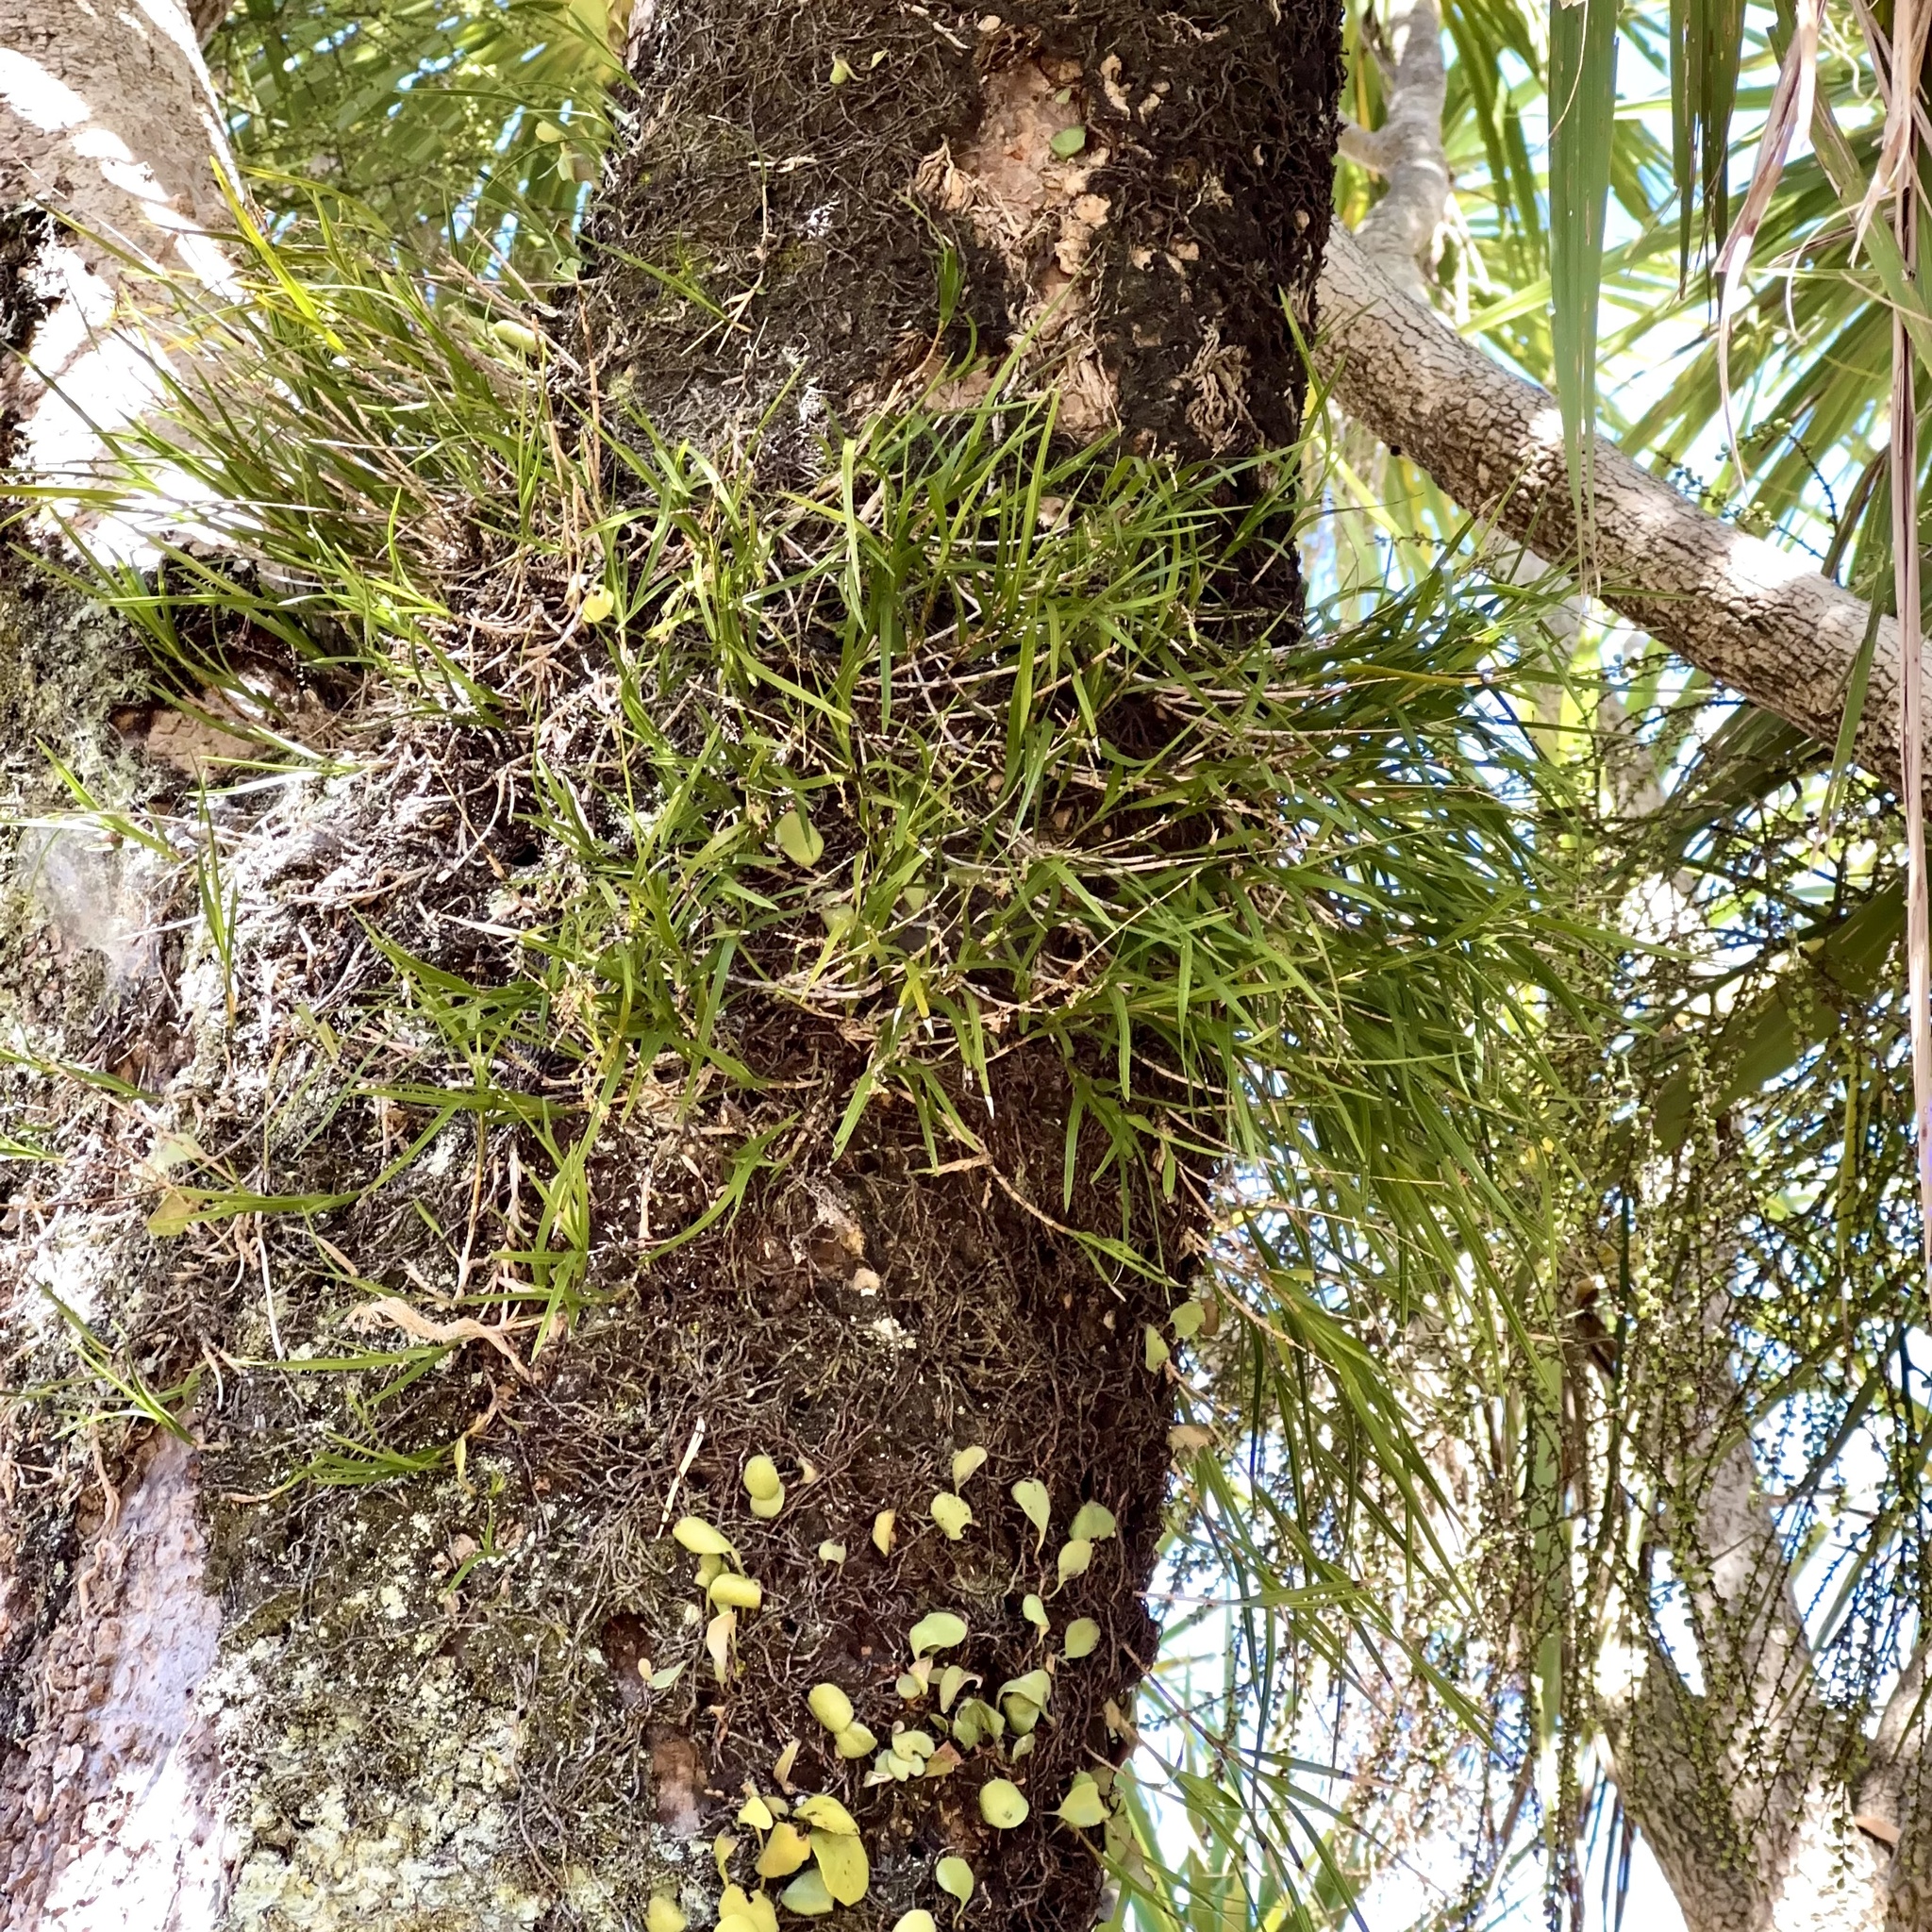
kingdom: Plantae
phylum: Tracheophyta
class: Liliopsida
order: Asparagales
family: Orchidaceae
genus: Earina
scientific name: Earina mucronata
